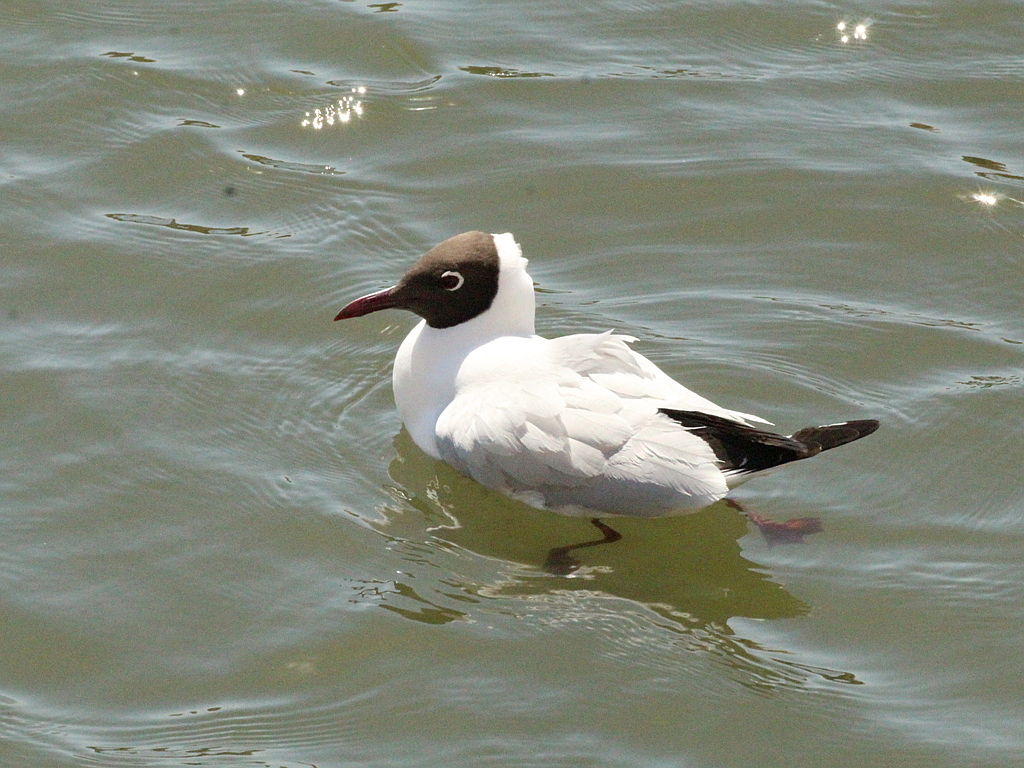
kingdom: Animalia
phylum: Chordata
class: Aves
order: Charadriiformes
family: Laridae
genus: Chroicocephalus
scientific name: Chroicocephalus ridibundus
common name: Black-headed gull
